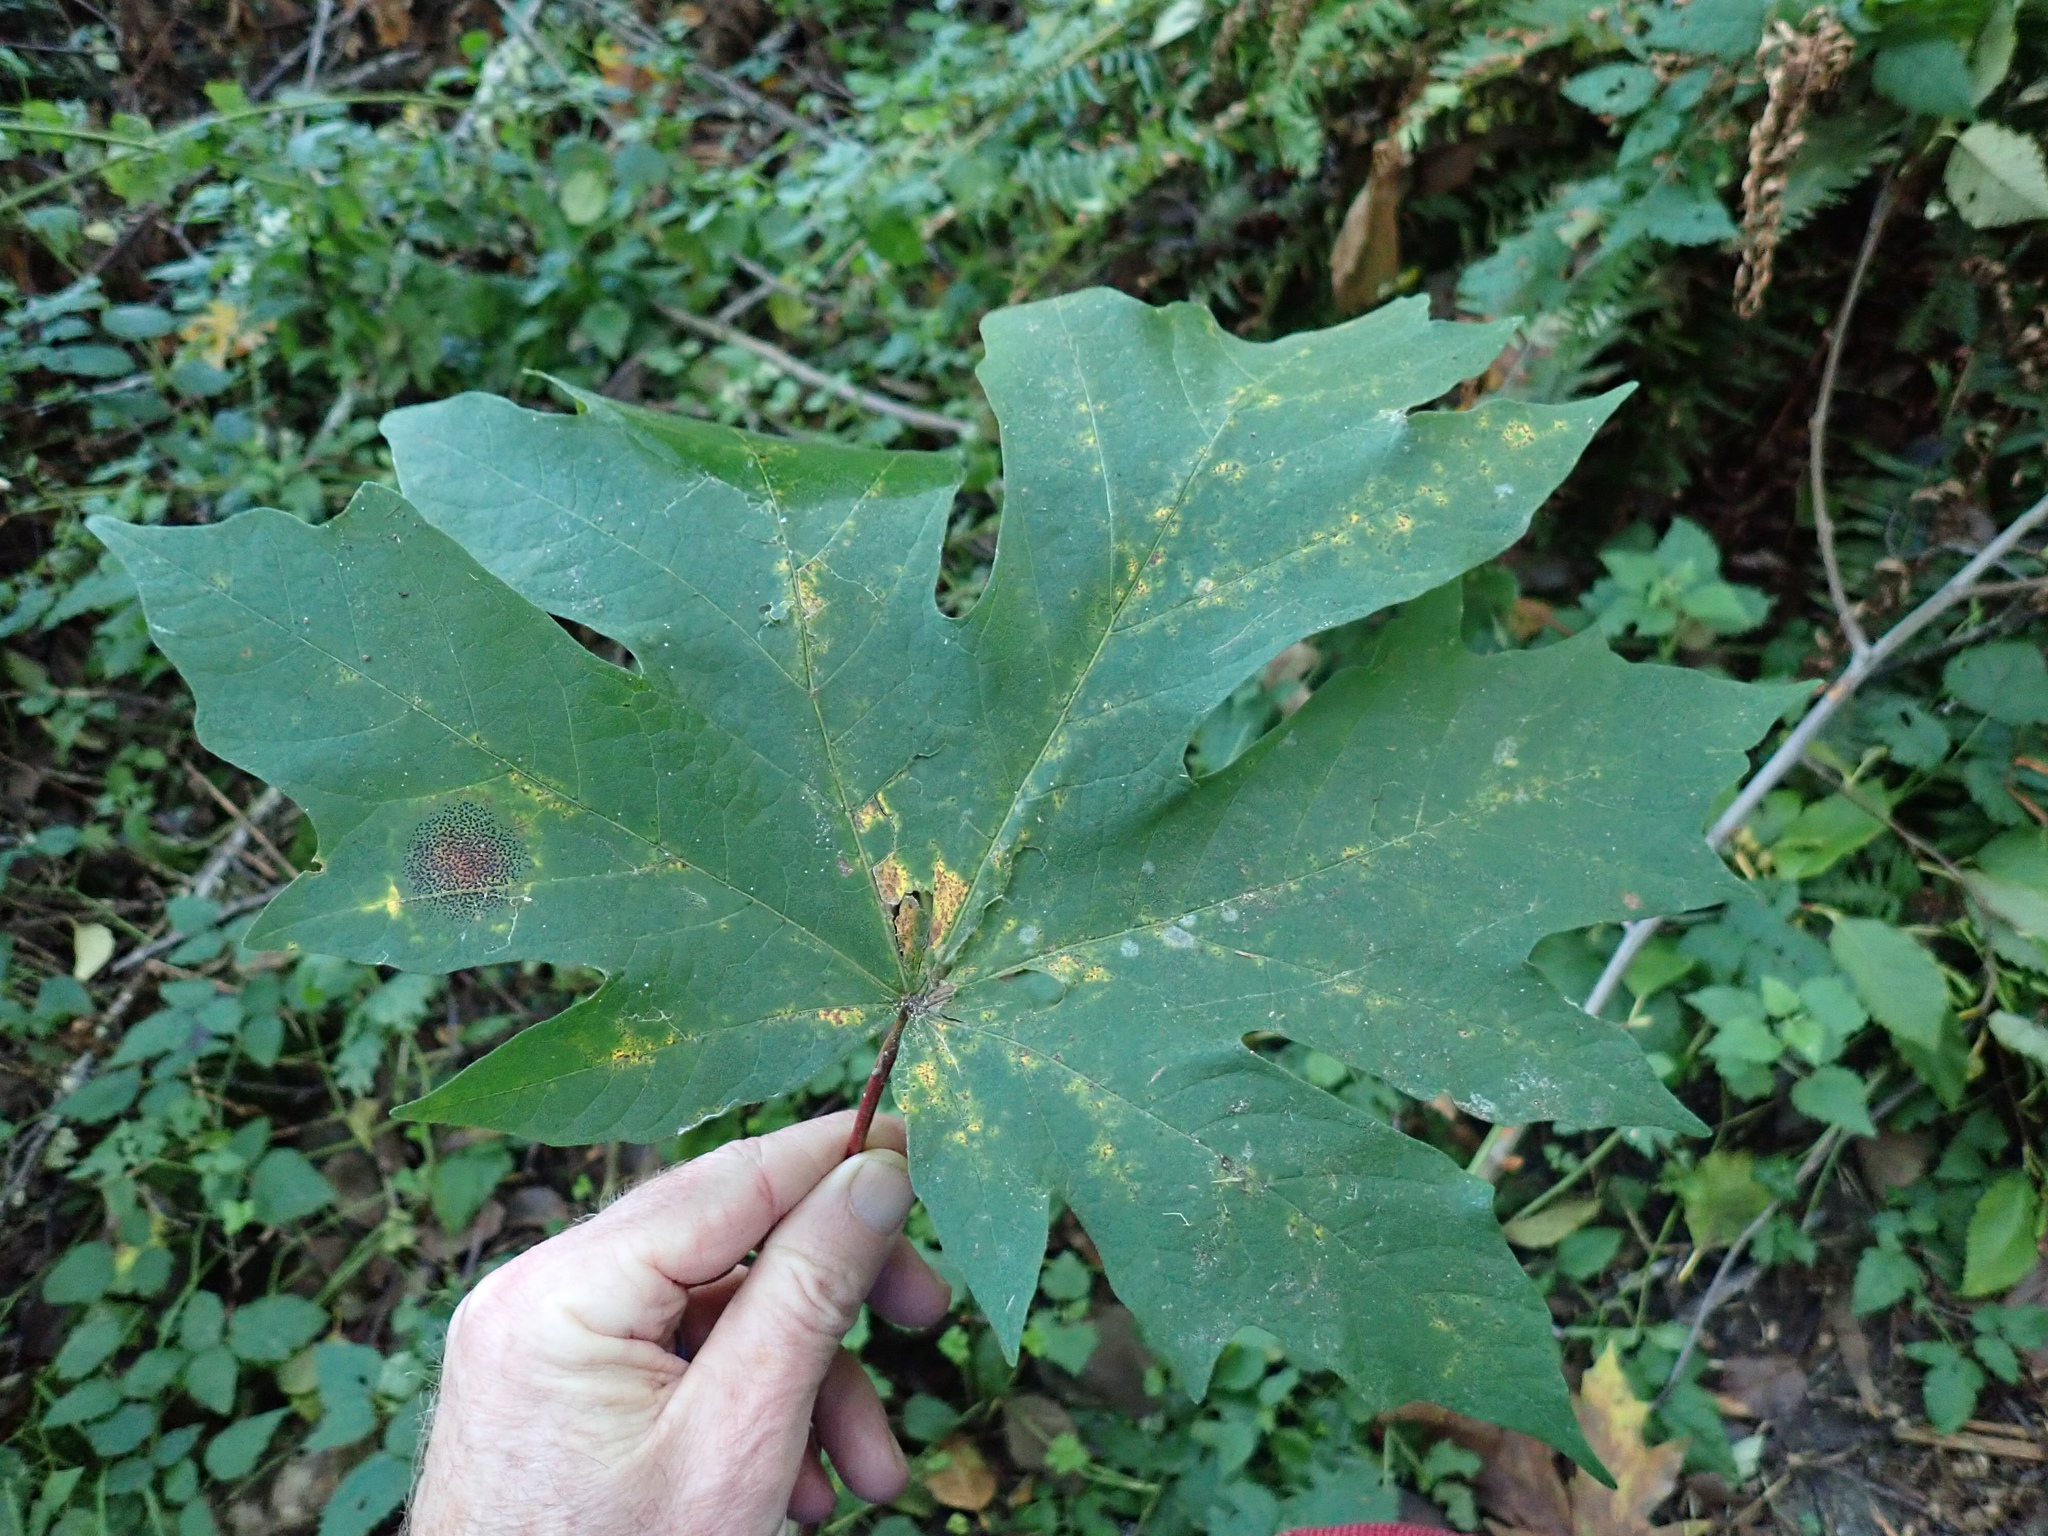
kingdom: Plantae
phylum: Tracheophyta
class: Magnoliopsida
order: Sapindales
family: Sapindaceae
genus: Acer
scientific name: Acer macrophyllum
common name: Oregon maple
